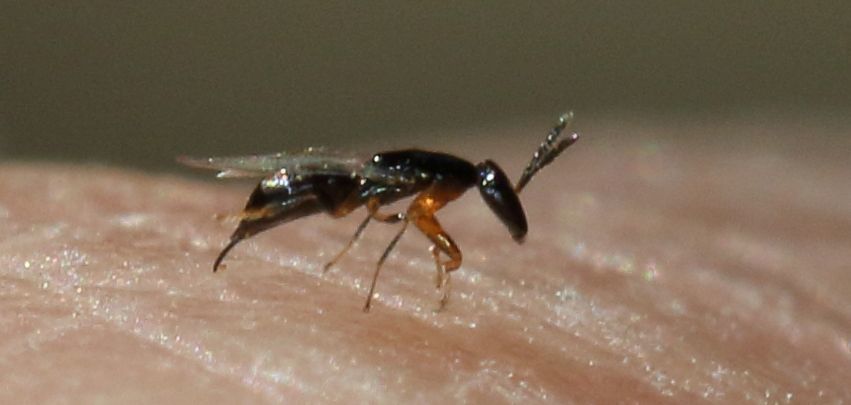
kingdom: Animalia
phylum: Arthropoda
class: Insecta
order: Hymenoptera
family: Agaonidae
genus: Seres
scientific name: Seres
